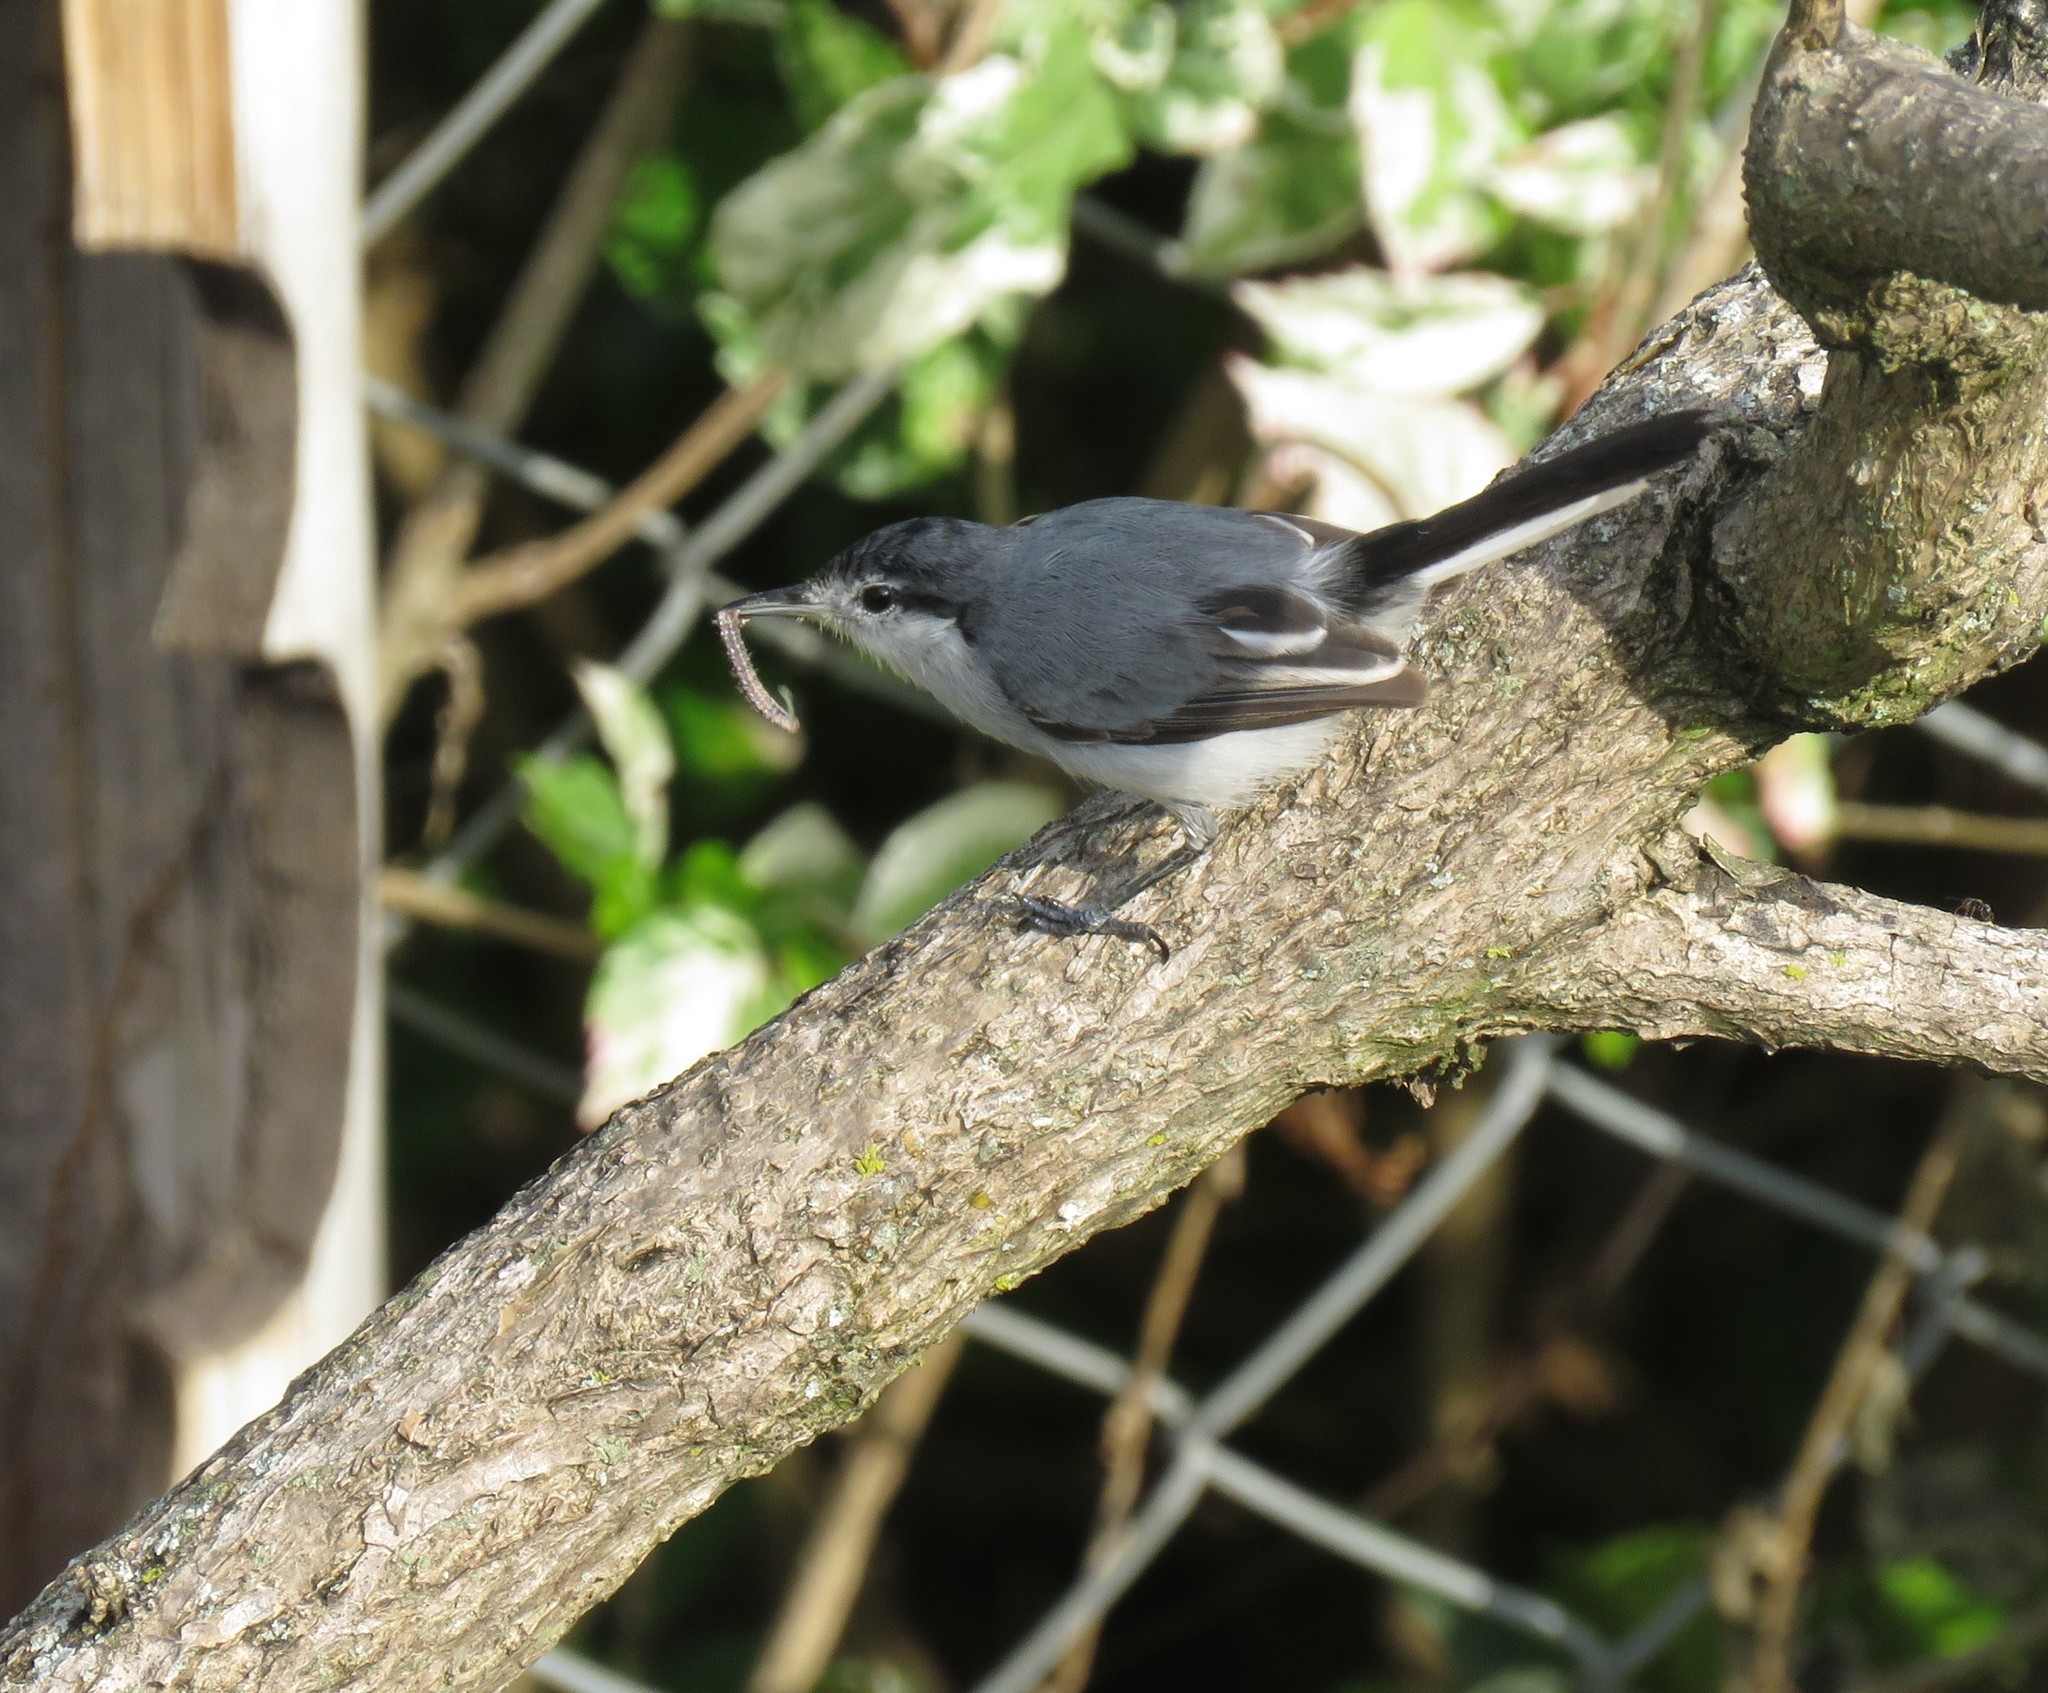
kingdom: Animalia
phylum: Chordata
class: Aves
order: Passeriformes
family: Polioptilidae
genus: Polioptila
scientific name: Polioptila plumbea
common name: Tropical gnatcatcher
